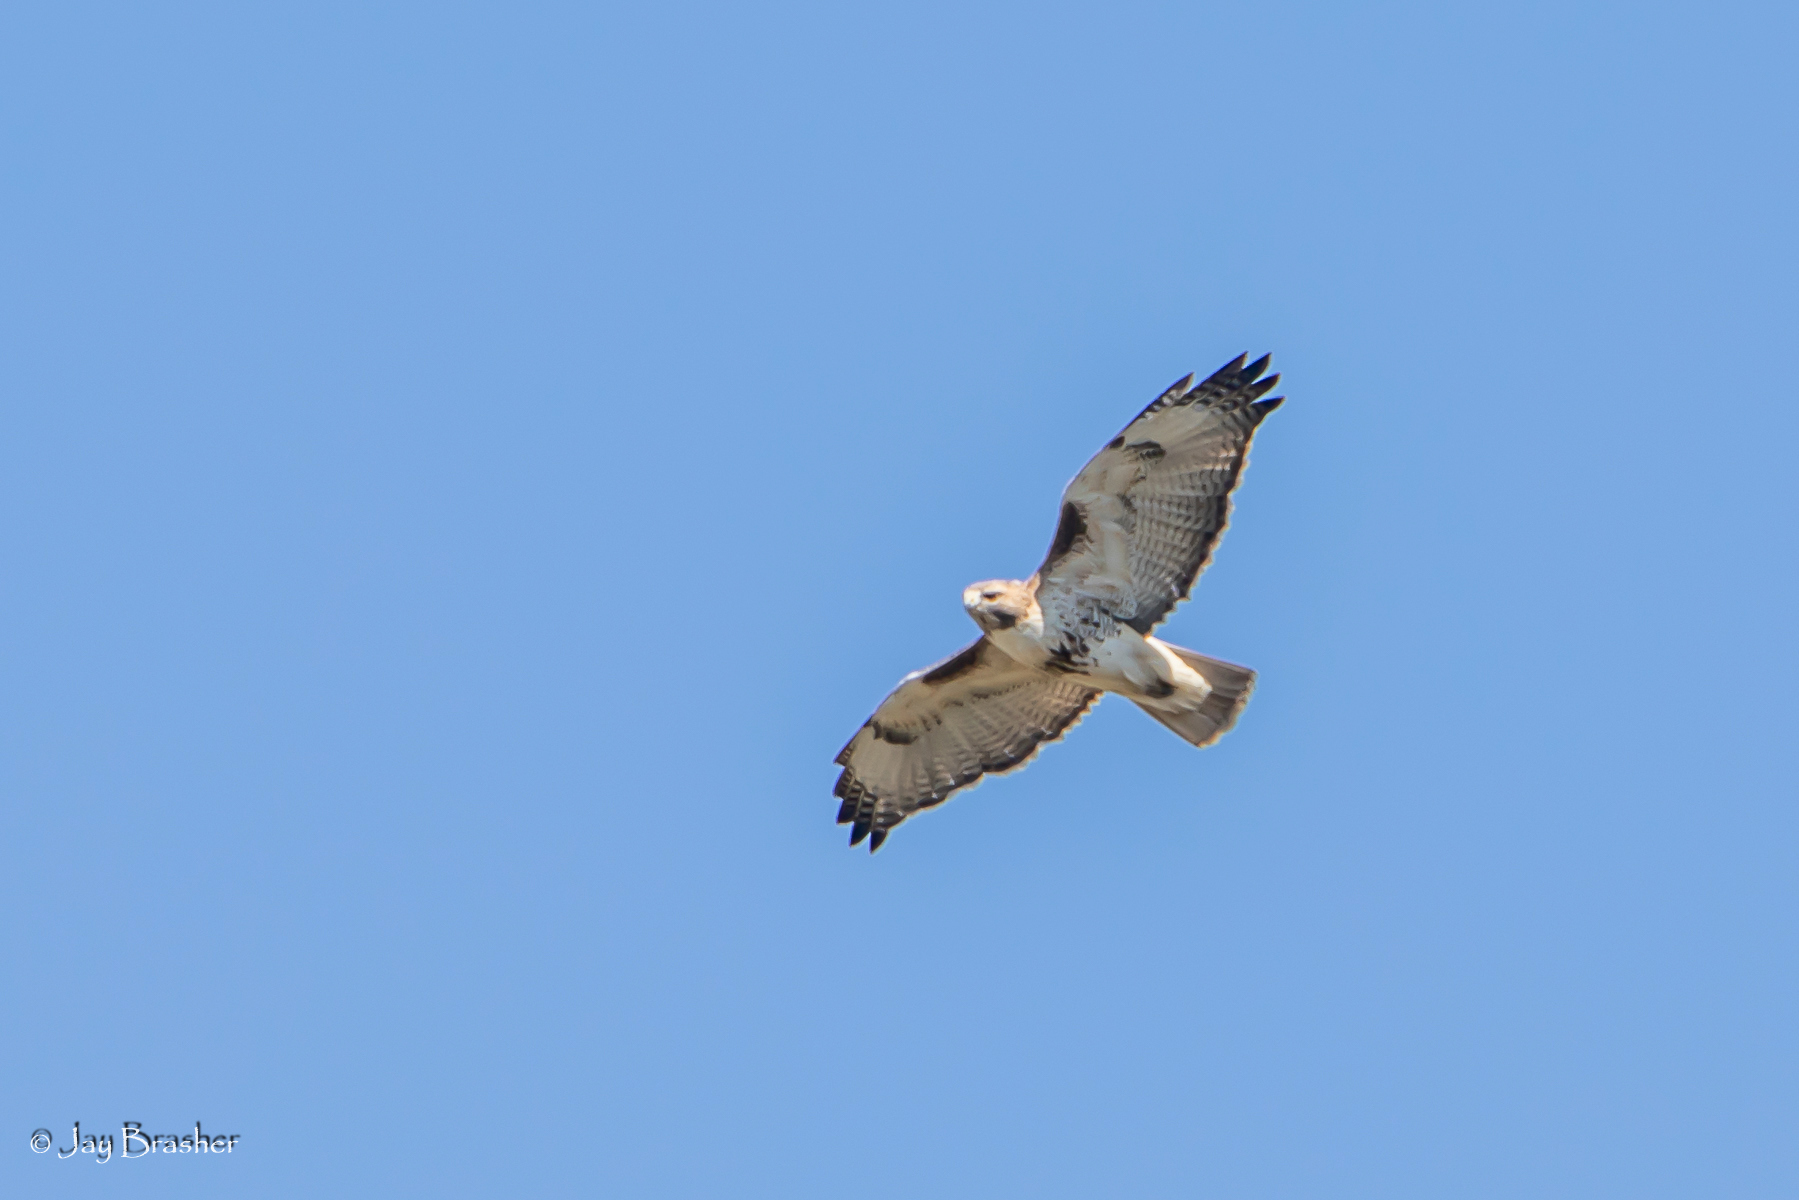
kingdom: Animalia
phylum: Chordata
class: Aves
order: Accipitriformes
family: Accipitridae
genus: Buteo
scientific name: Buteo jamaicensis
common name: Red-tailed hawk
